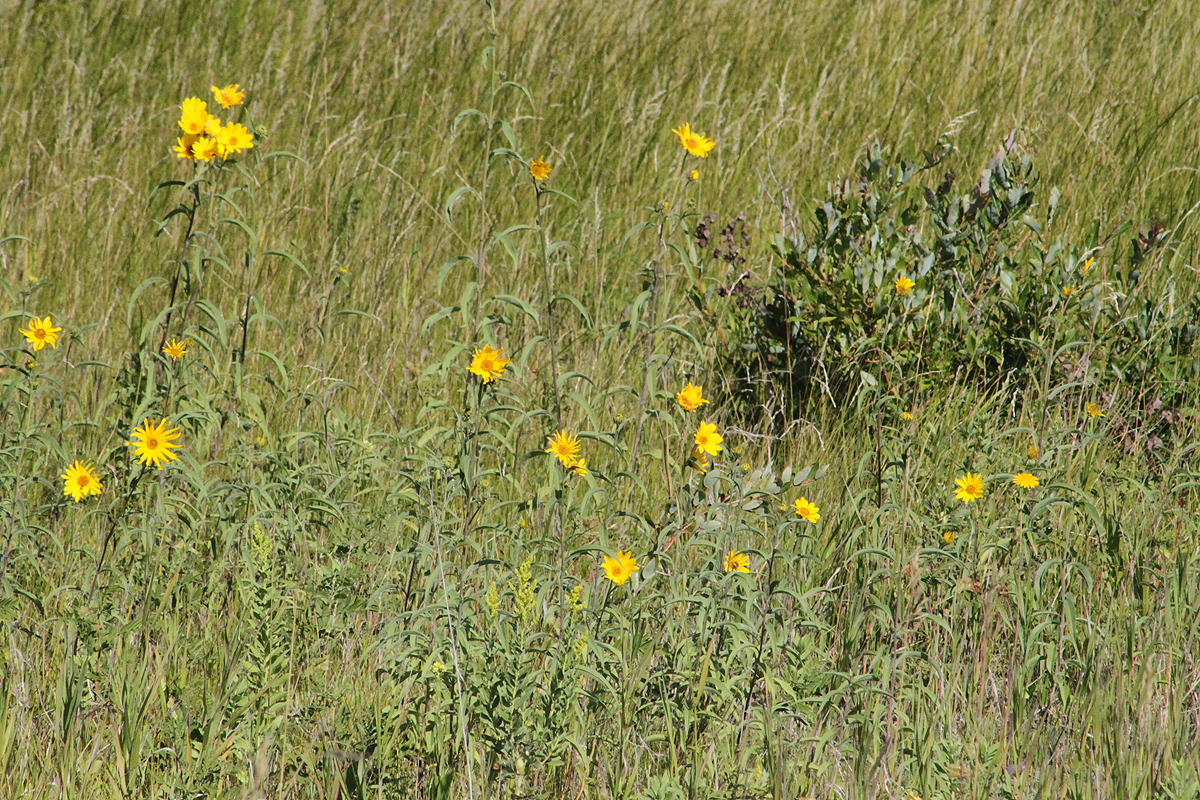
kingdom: Plantae
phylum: Tracheophyta
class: Magnoliopsida
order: Asterales
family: Asteraceae
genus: Helianthus
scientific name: Helianthus maximiliani
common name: Maximilian's sunflower
